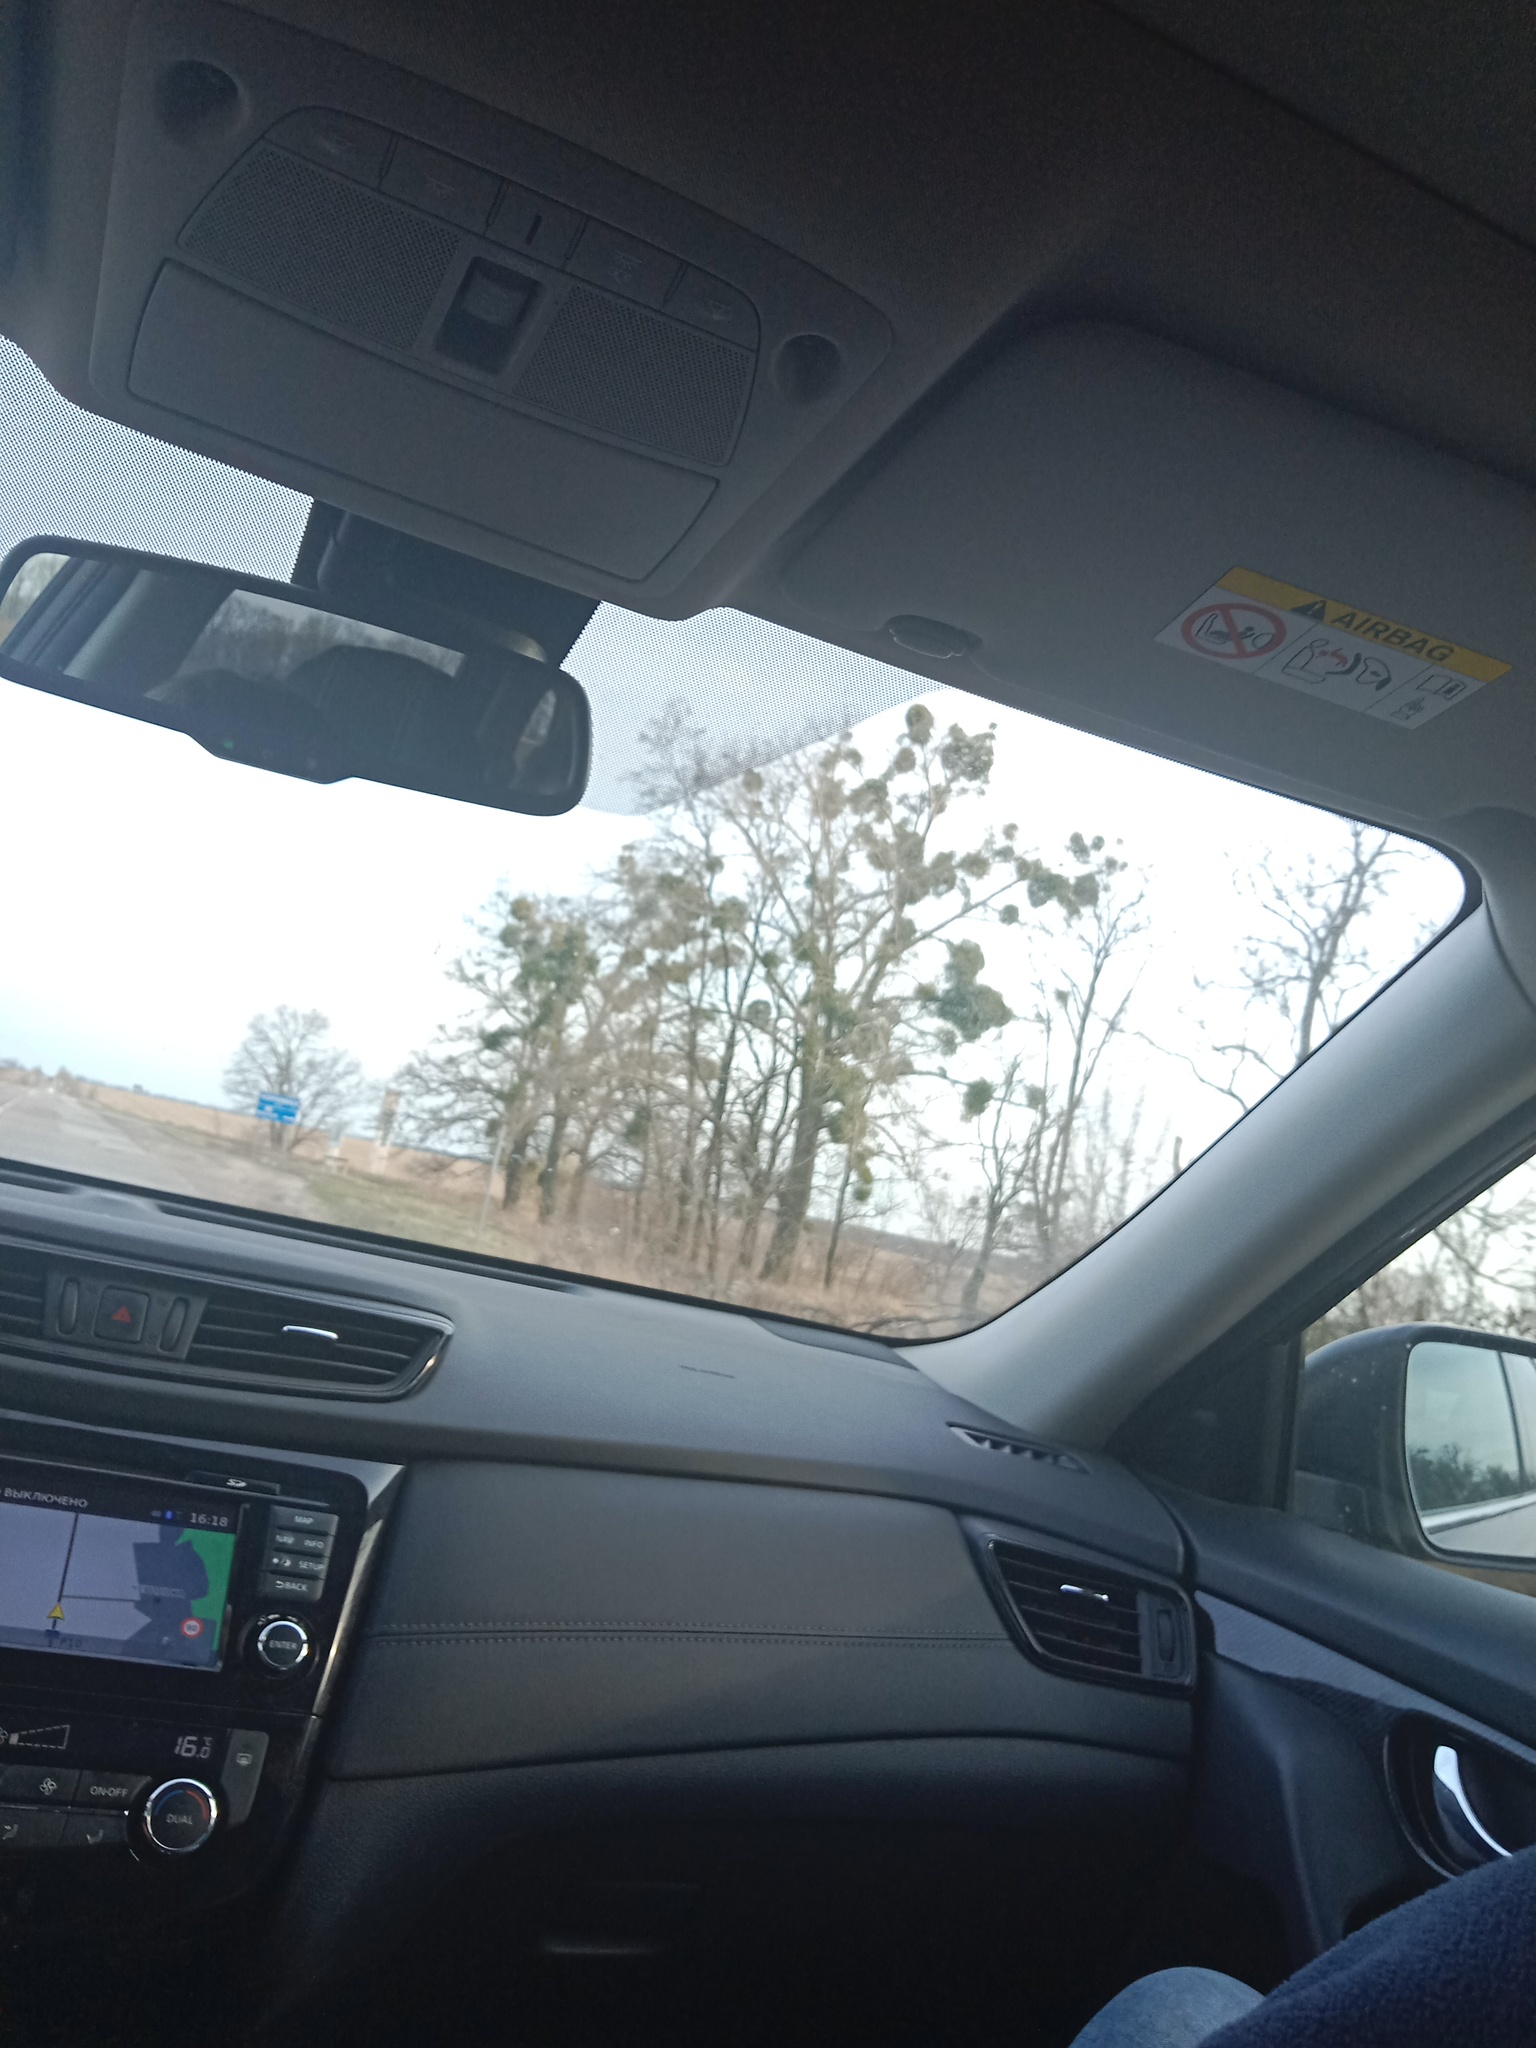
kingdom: Plantae
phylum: Tracheophyta
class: Magnoliopsida
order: Santalales
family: Viscaceae
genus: Viscum
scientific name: Viscum album
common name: Mistletoe
